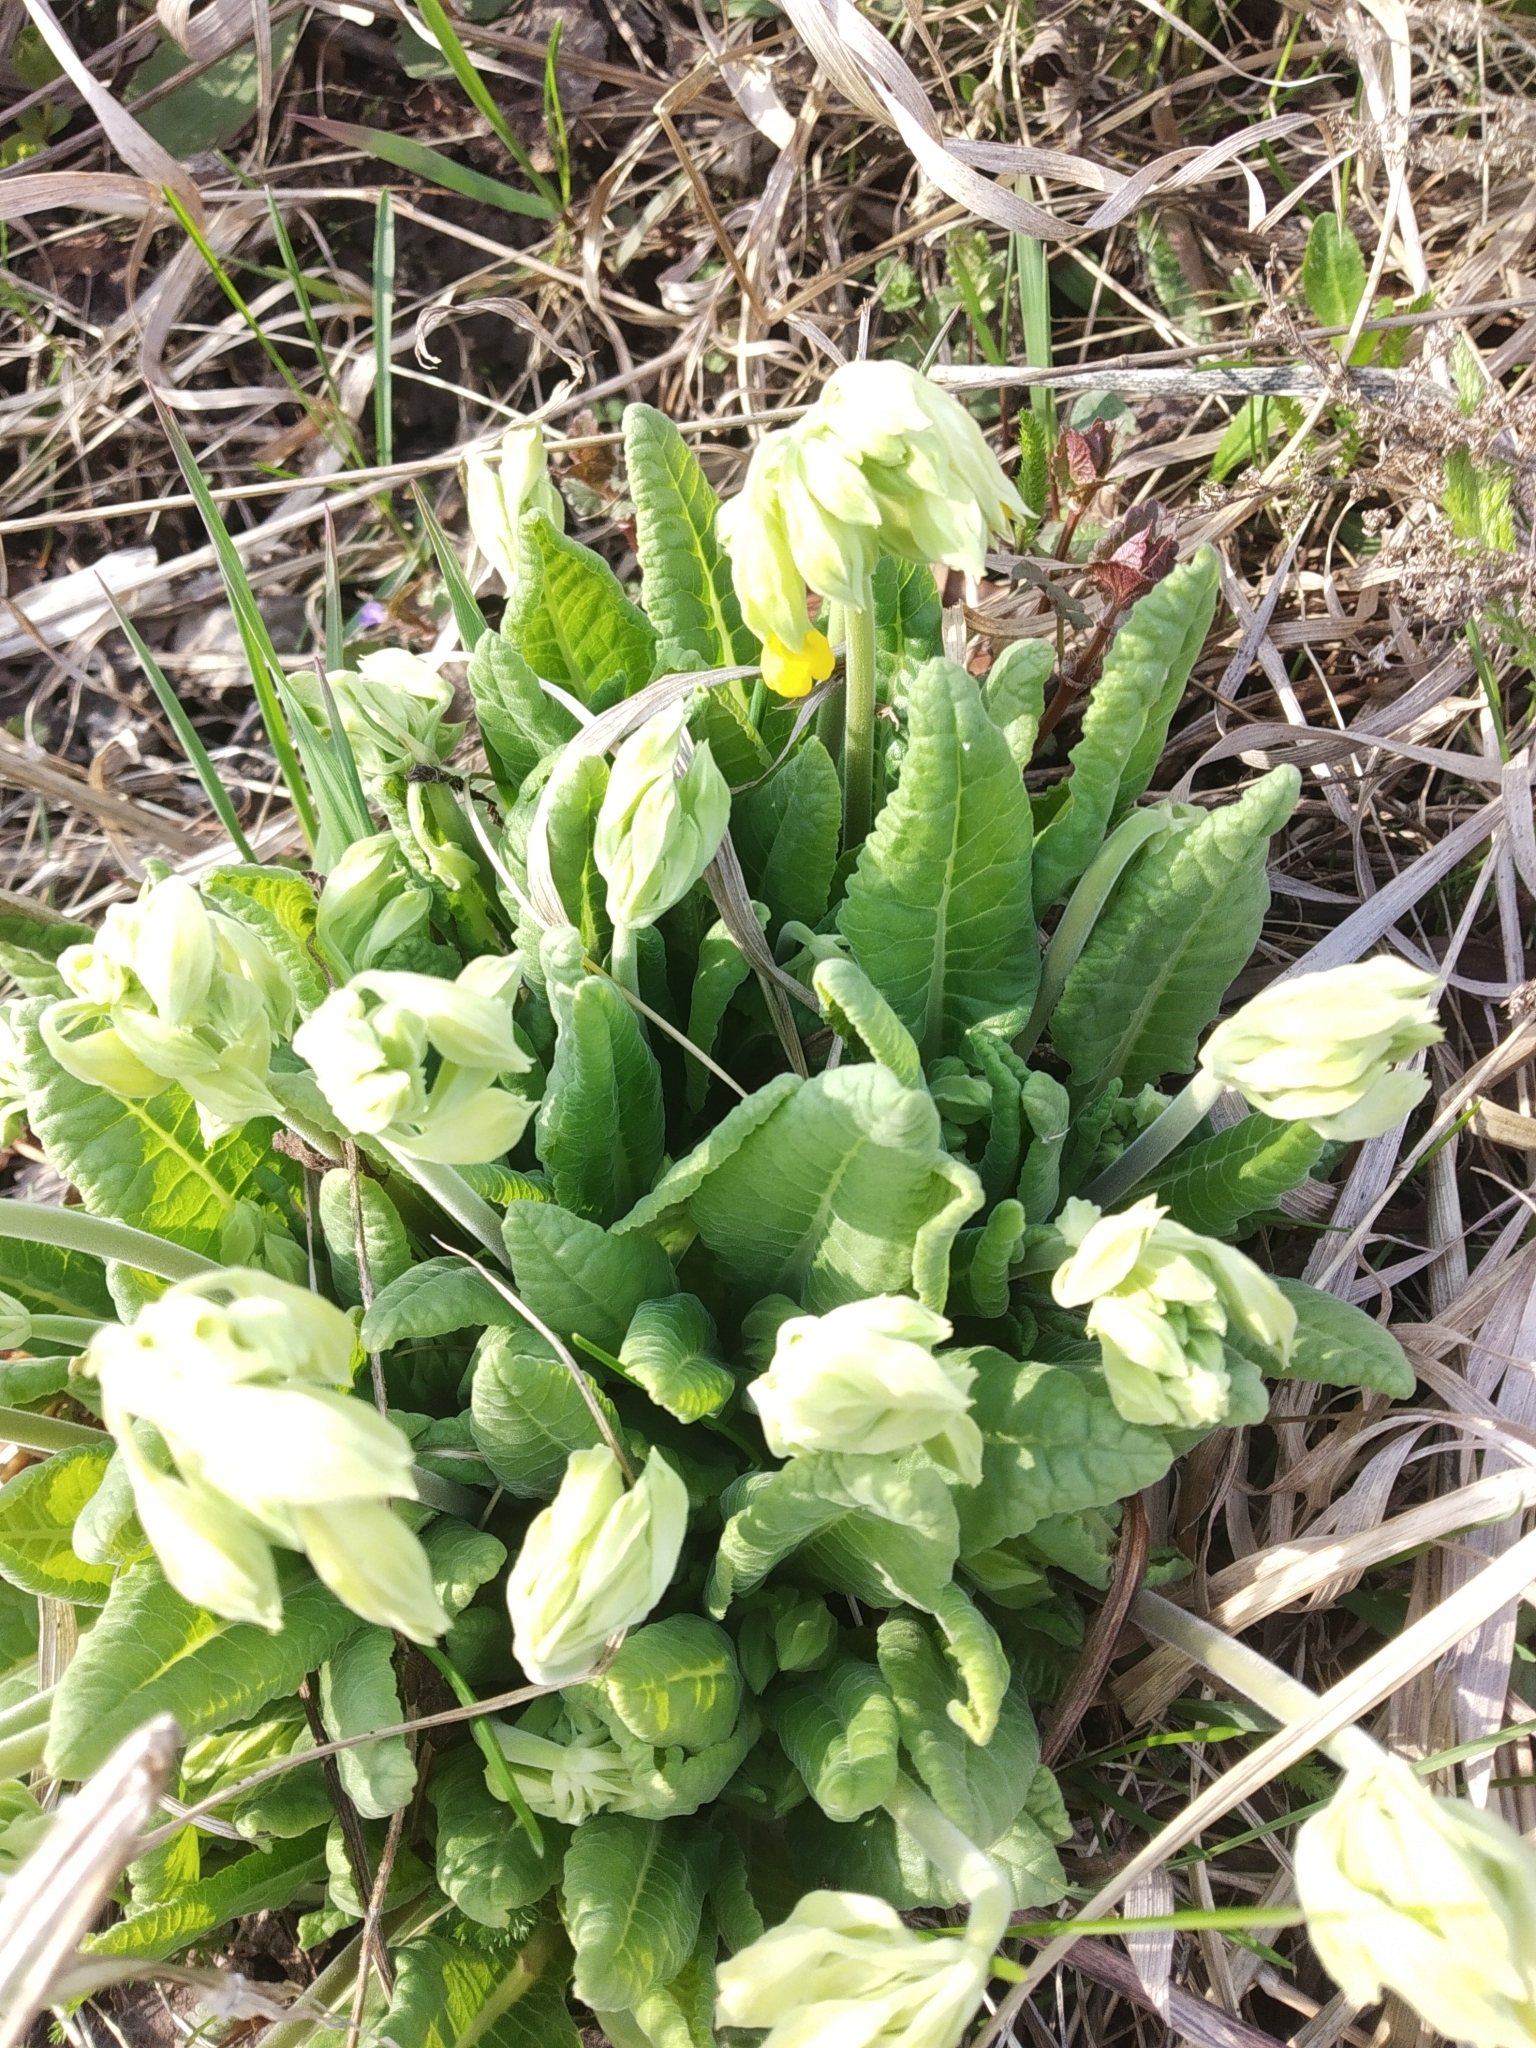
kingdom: Plantae
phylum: Tracheophyta
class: Magnoliopsida
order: Ericales
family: Primulaceae
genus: Primula
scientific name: Primula veris
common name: Cowslip
